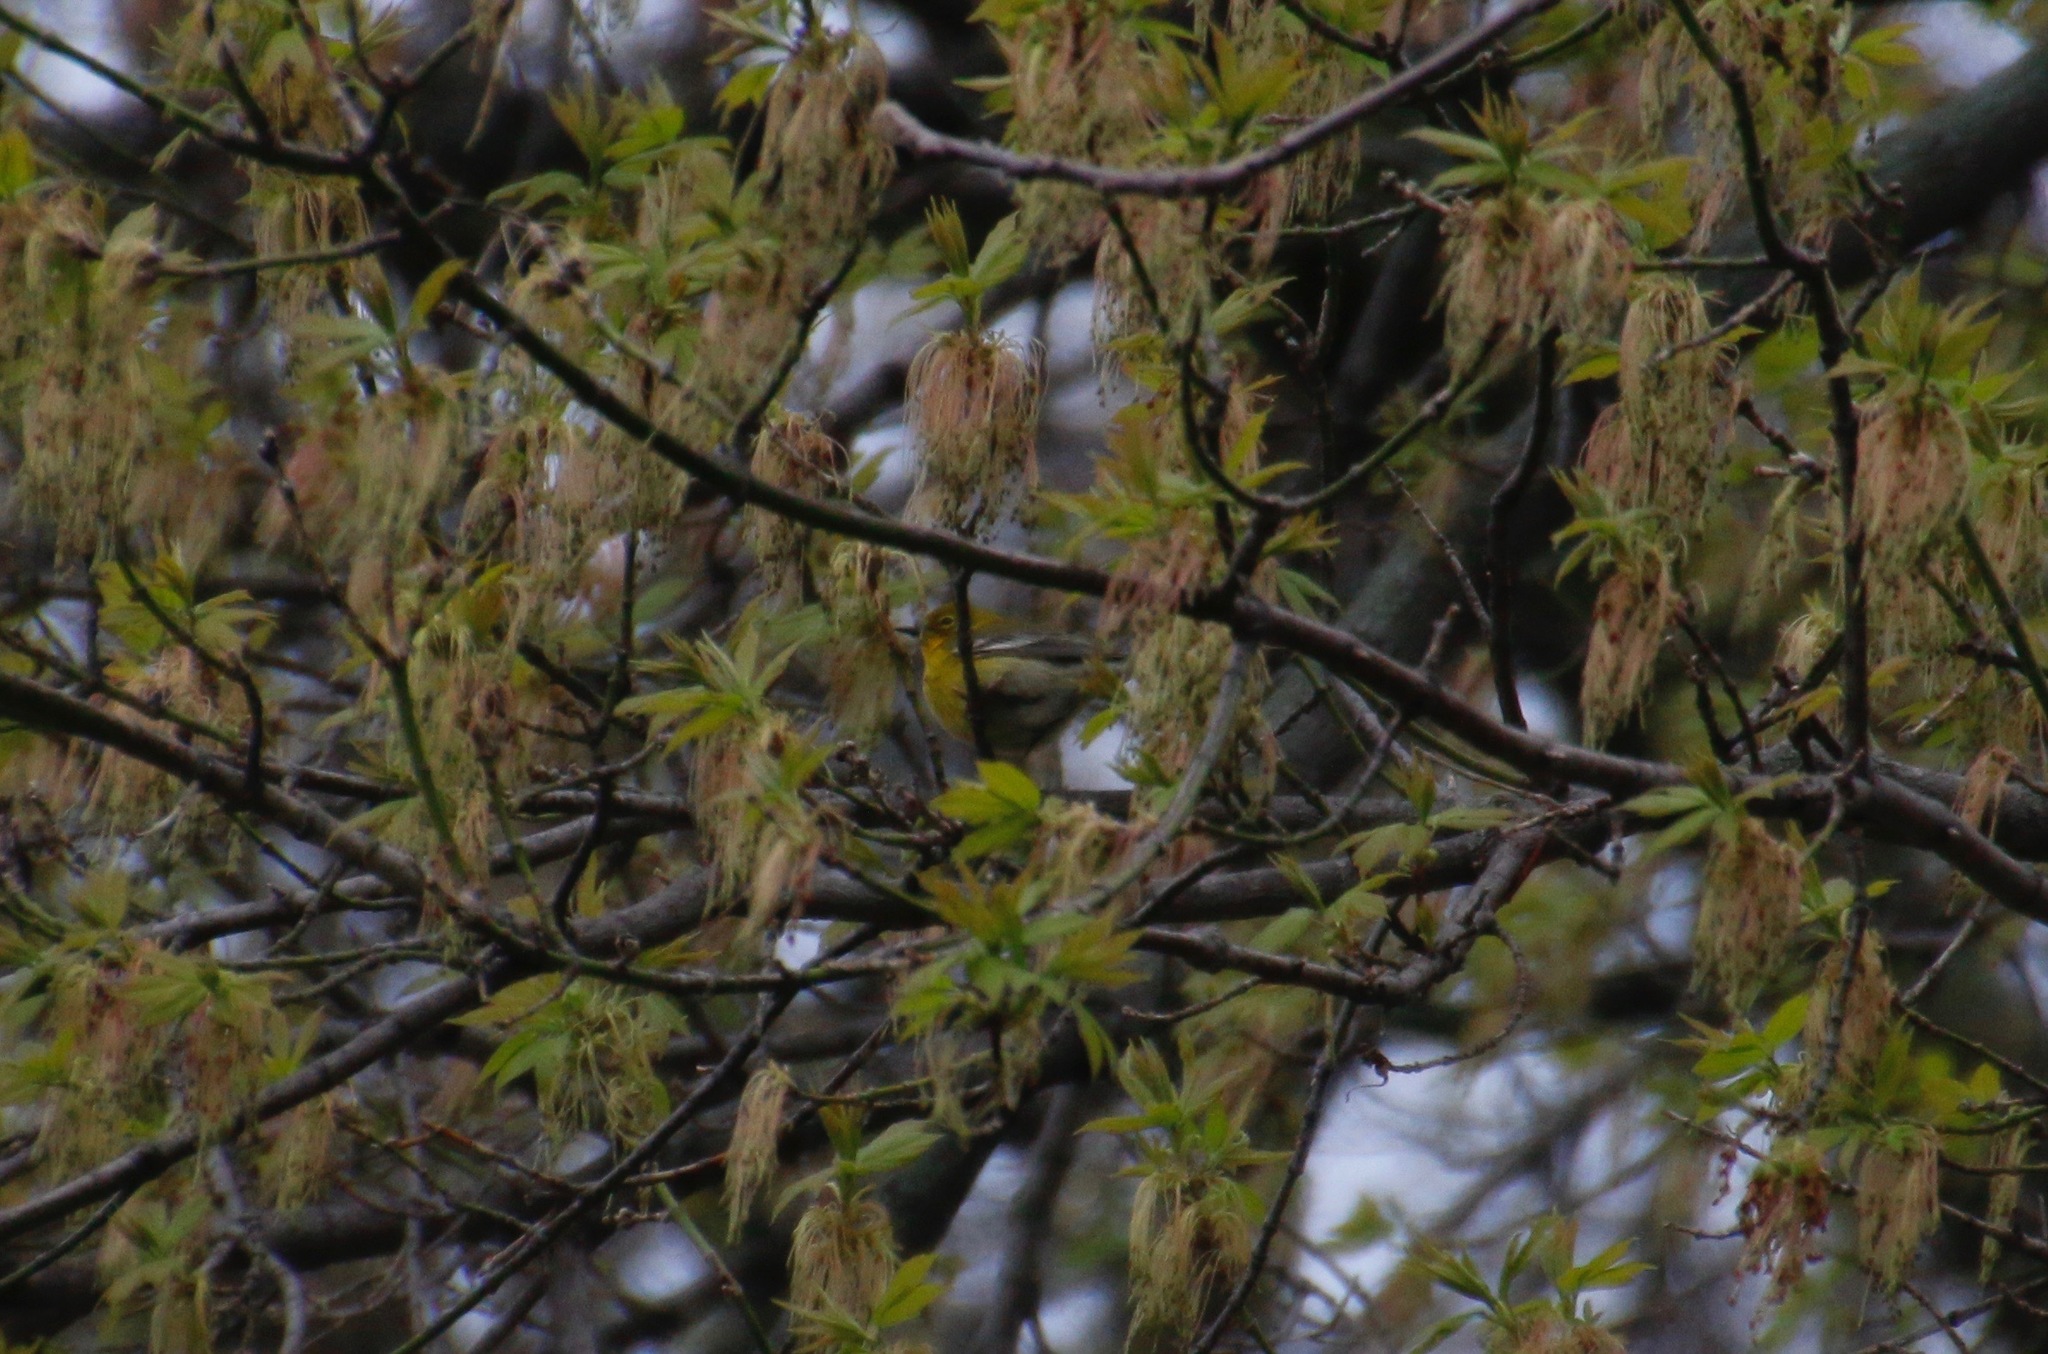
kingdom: Animalia
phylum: Chordata
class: Aves
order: Passeriformes
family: Parulidae
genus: Setophaga
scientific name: Setophaga pinus
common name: Pine warbler
